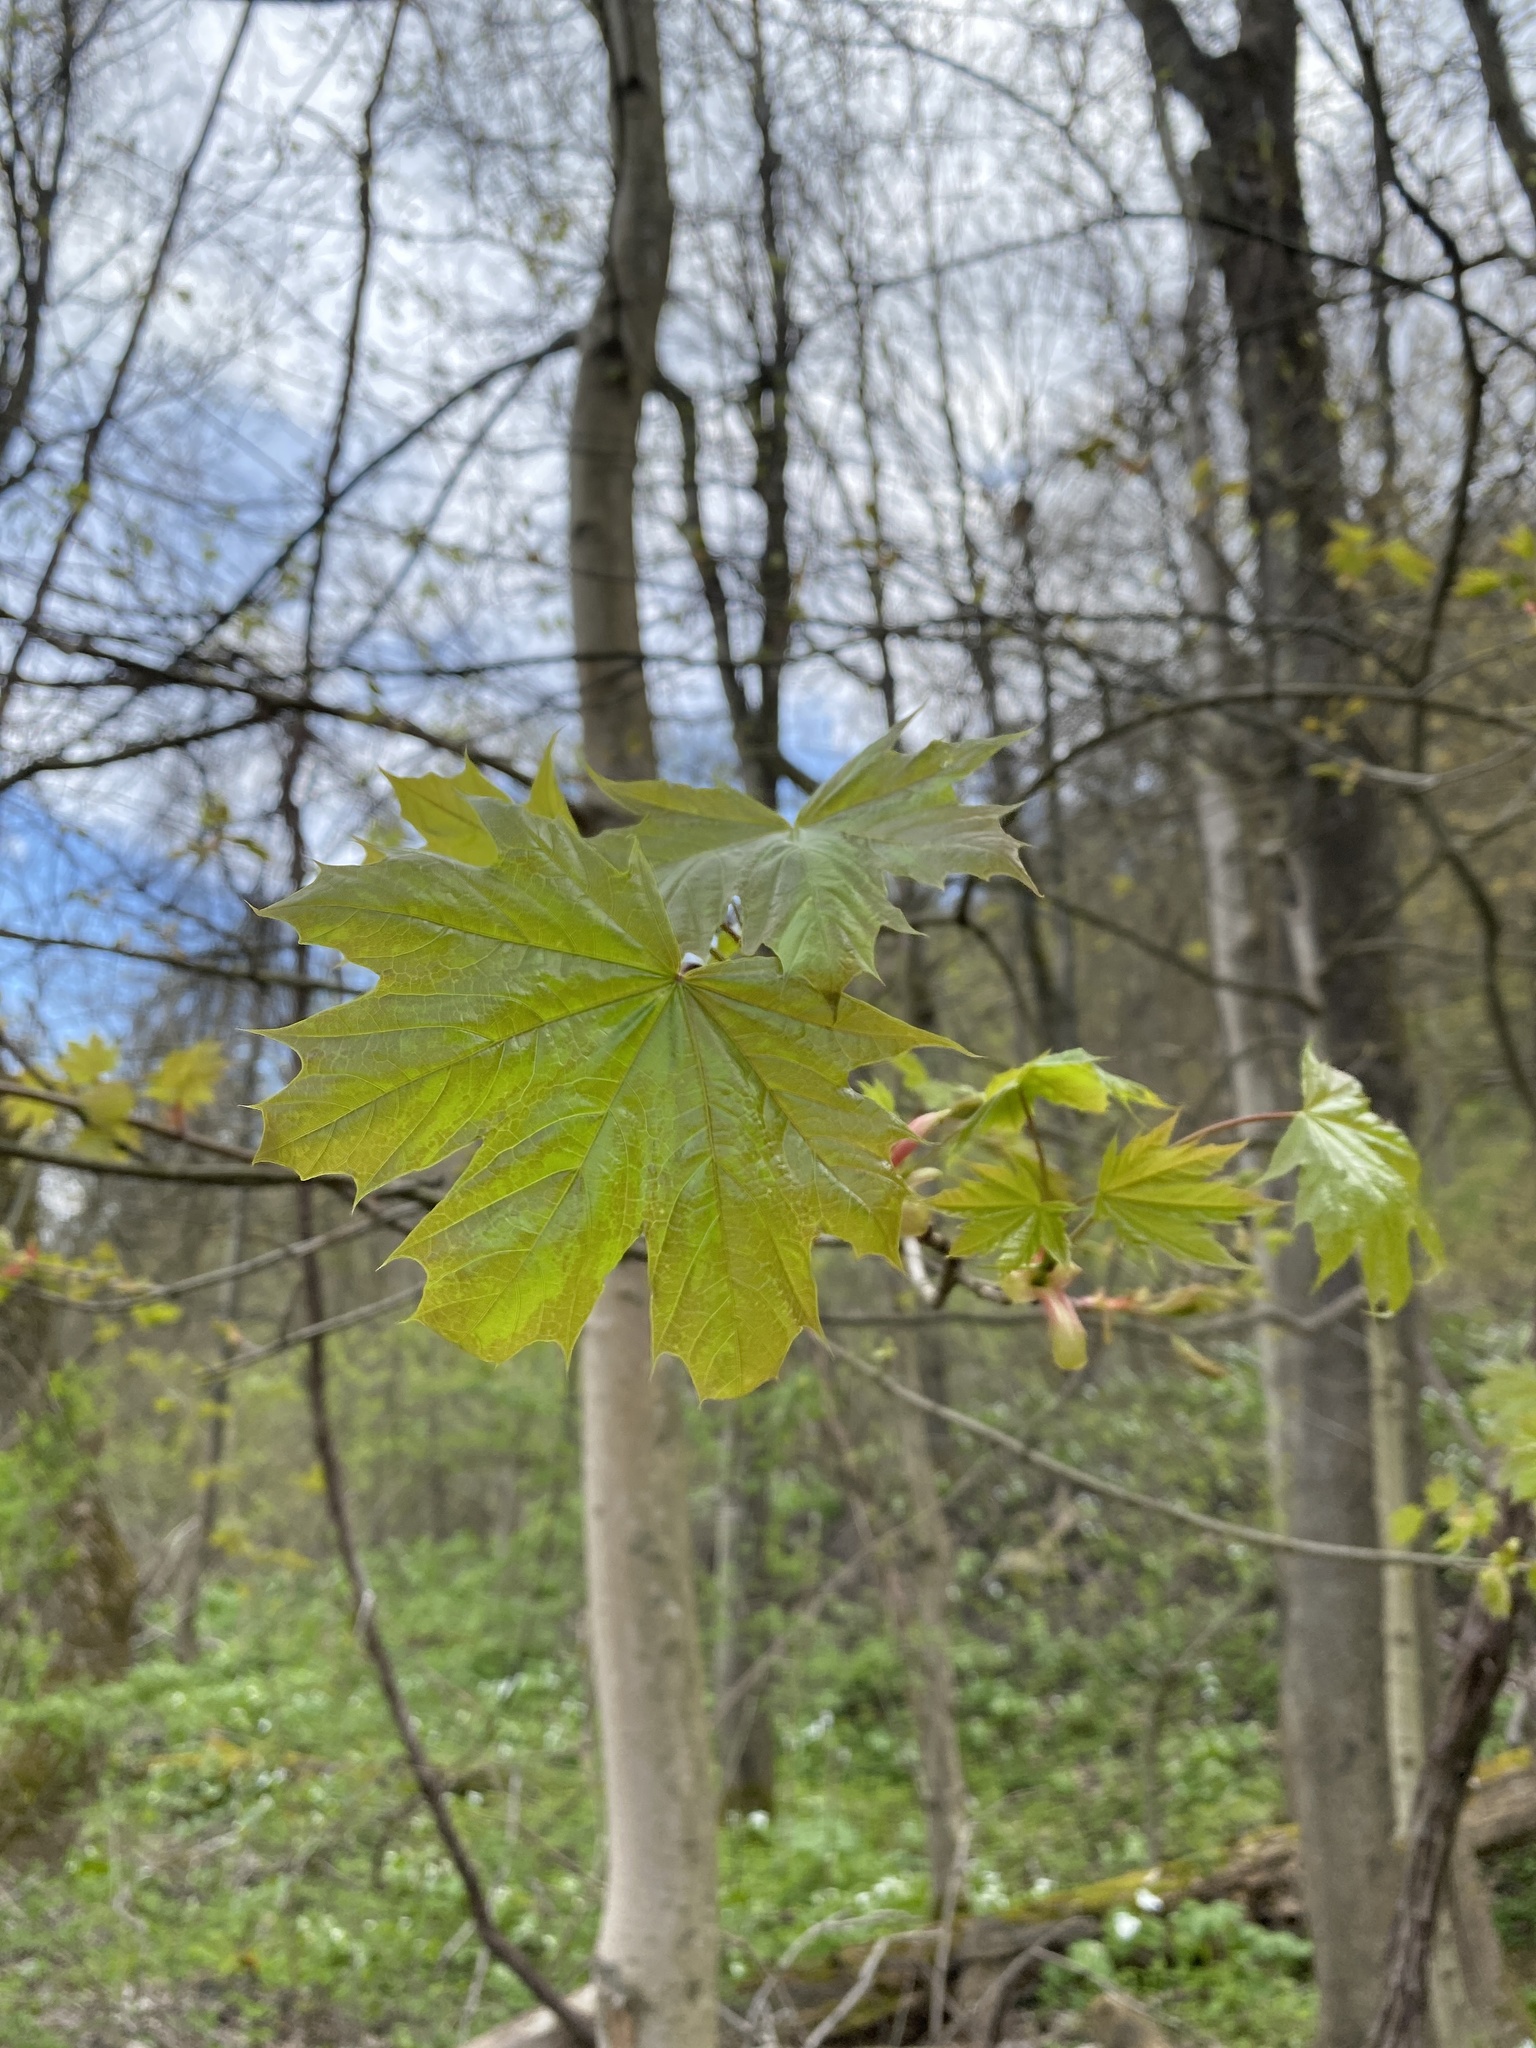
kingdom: Plantae
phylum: Tracheophyta
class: Magnoliopsida
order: Sapindales
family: Sapindaceae
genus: Acer
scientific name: Acer platanoides
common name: Norway maple
